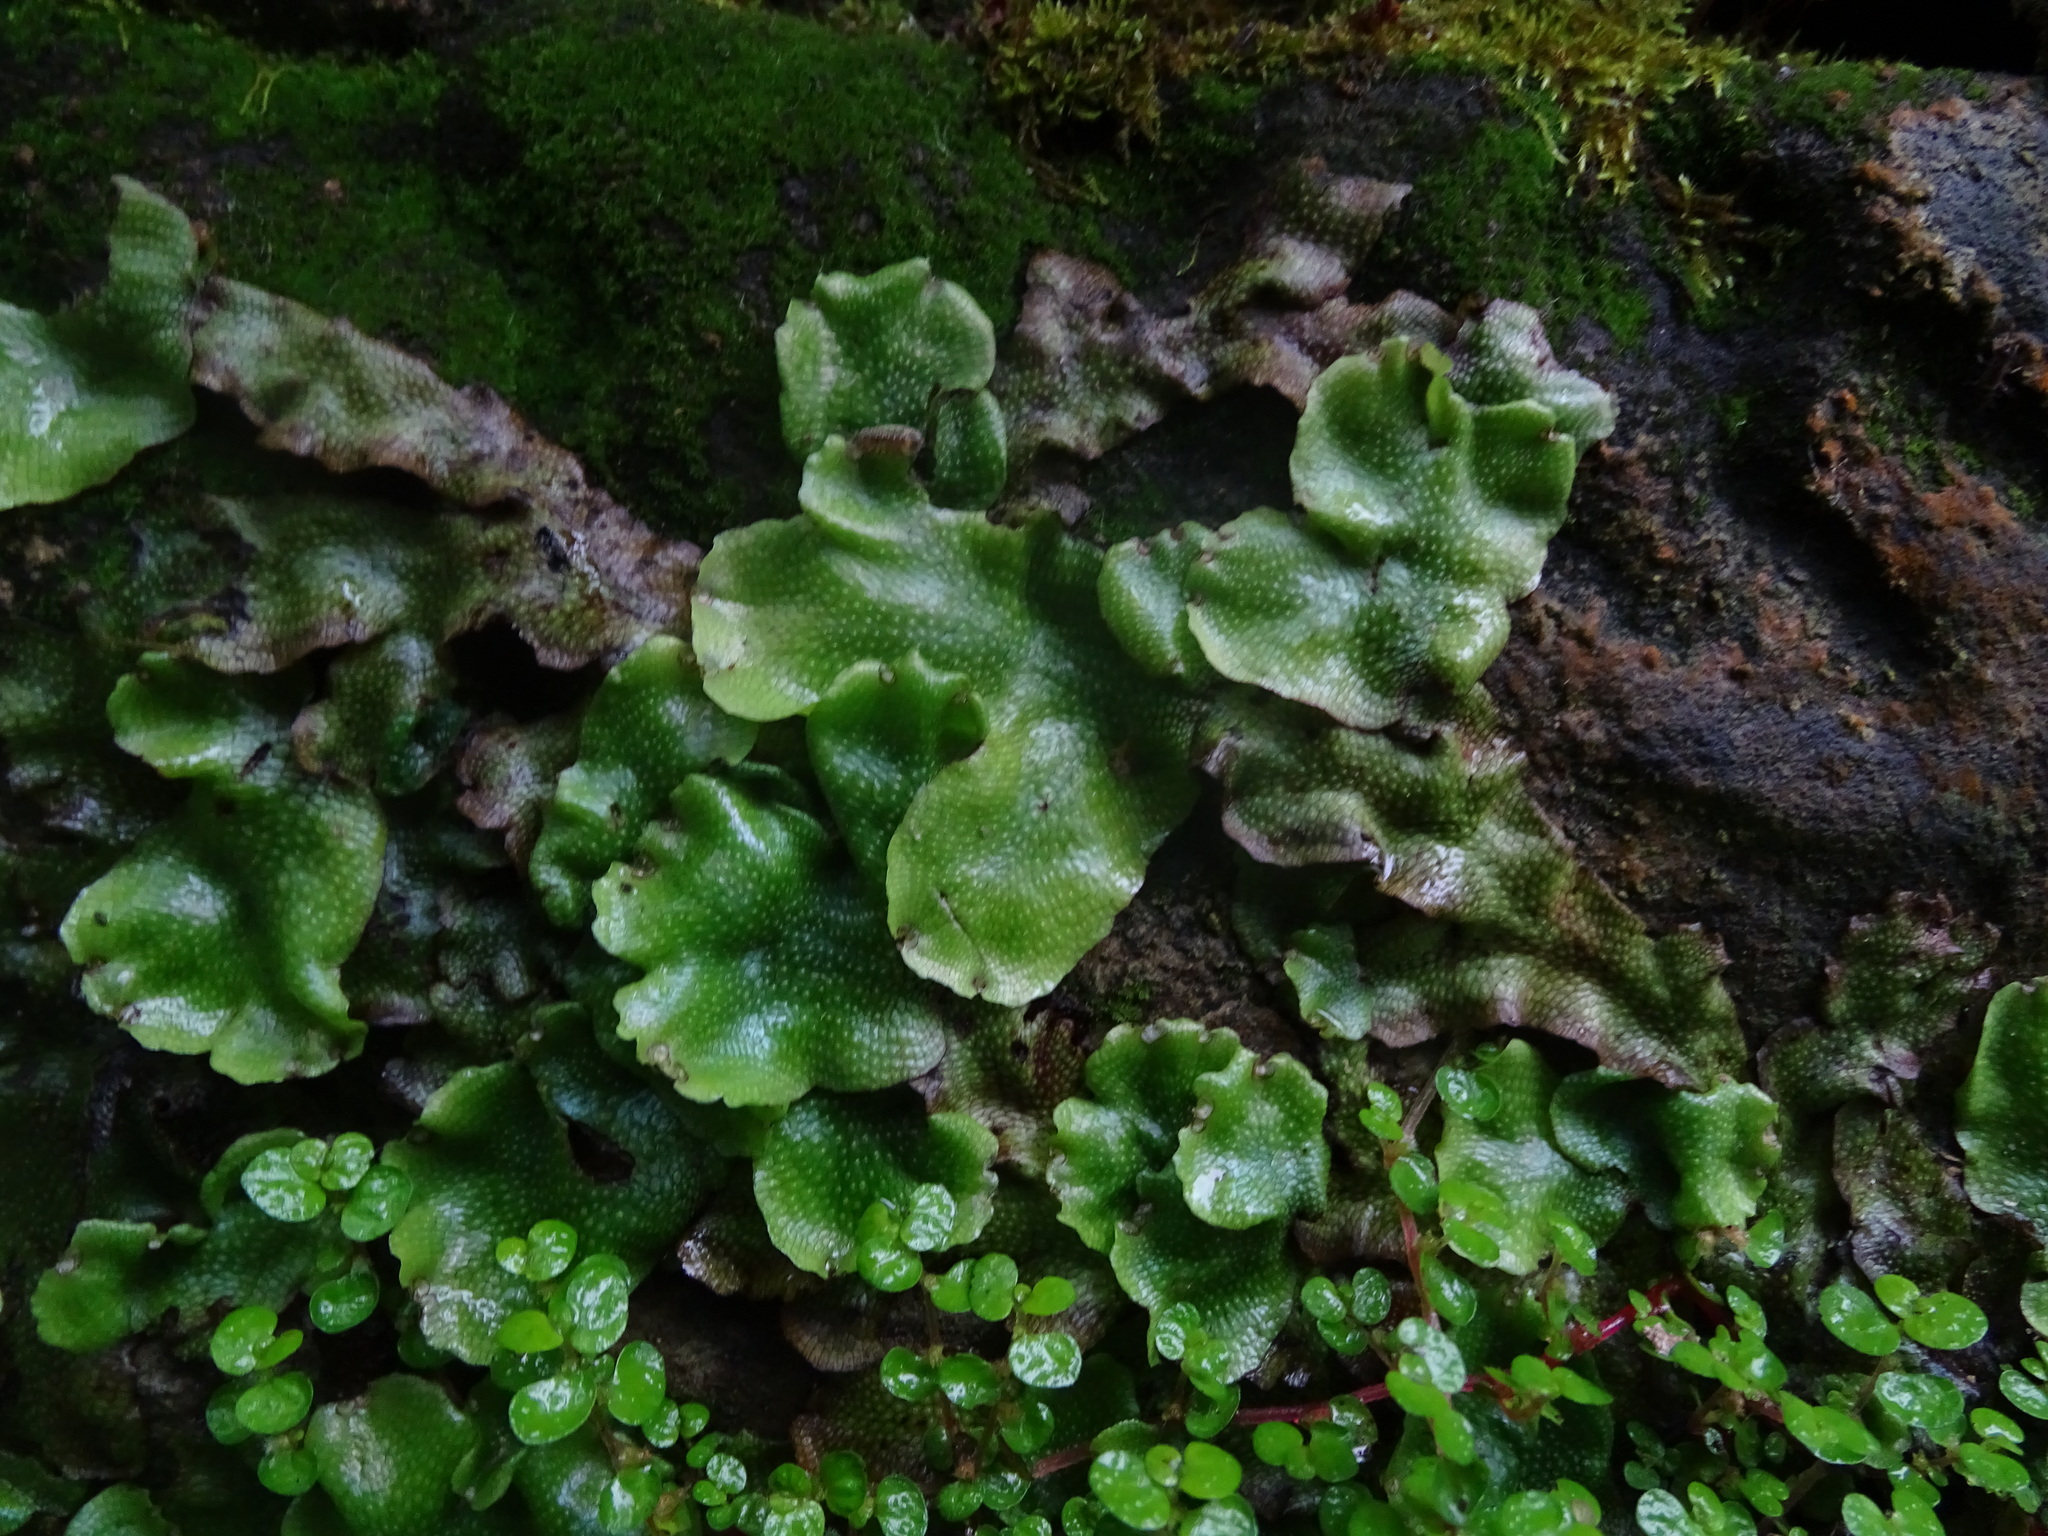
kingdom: Plantae
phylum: Marchantiophyta
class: Marchantiopsida
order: Marchantiales
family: Conocephalaceae
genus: Conocephalum
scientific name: Conocephalum conicum
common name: Great scented liverwort
